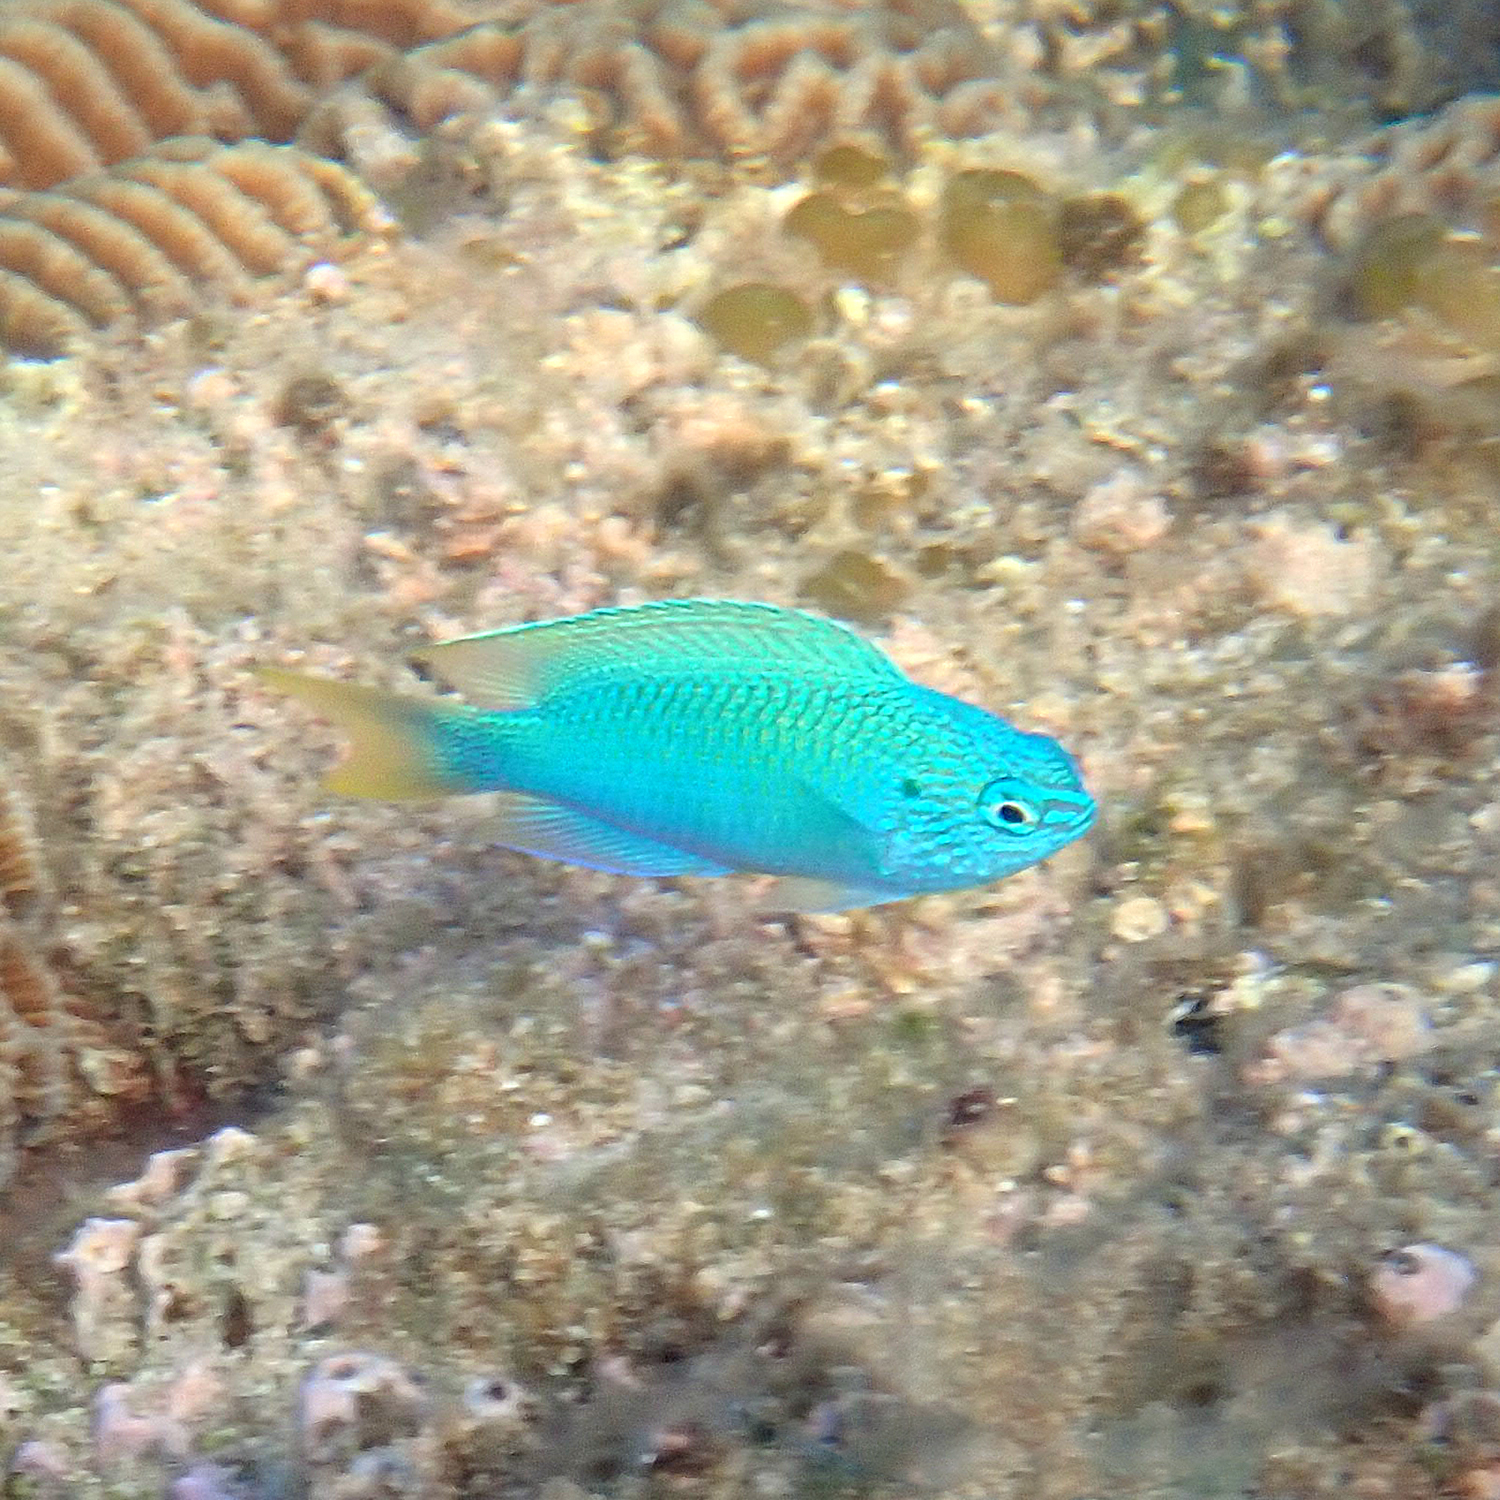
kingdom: Animalia
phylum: Chordata
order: Perciformes
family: Pomacentridae
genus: Pomacentrus
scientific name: Pomacentrus pavo
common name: Sapphire damsel
